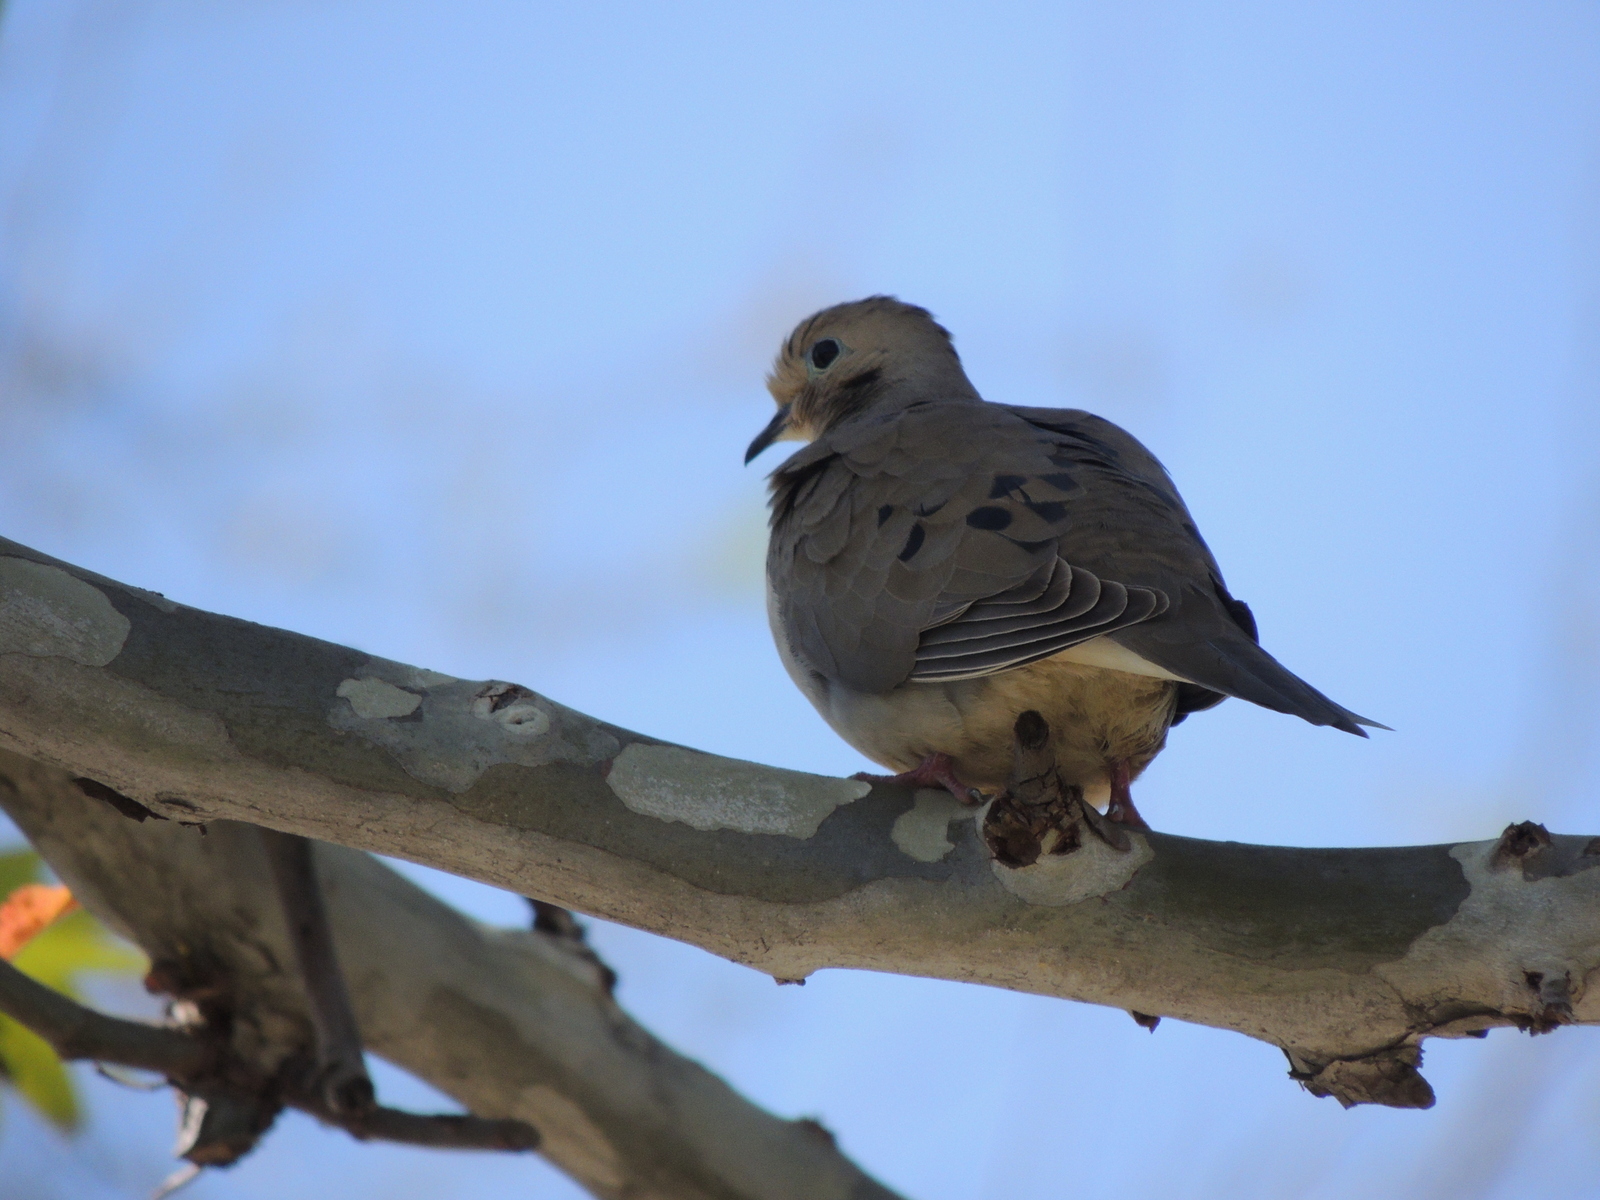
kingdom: Animalia
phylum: Chordata
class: Aves
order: Columbiformes
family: Columbidae
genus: Zenaida
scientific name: Zenaida macroura
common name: Mourning dove
